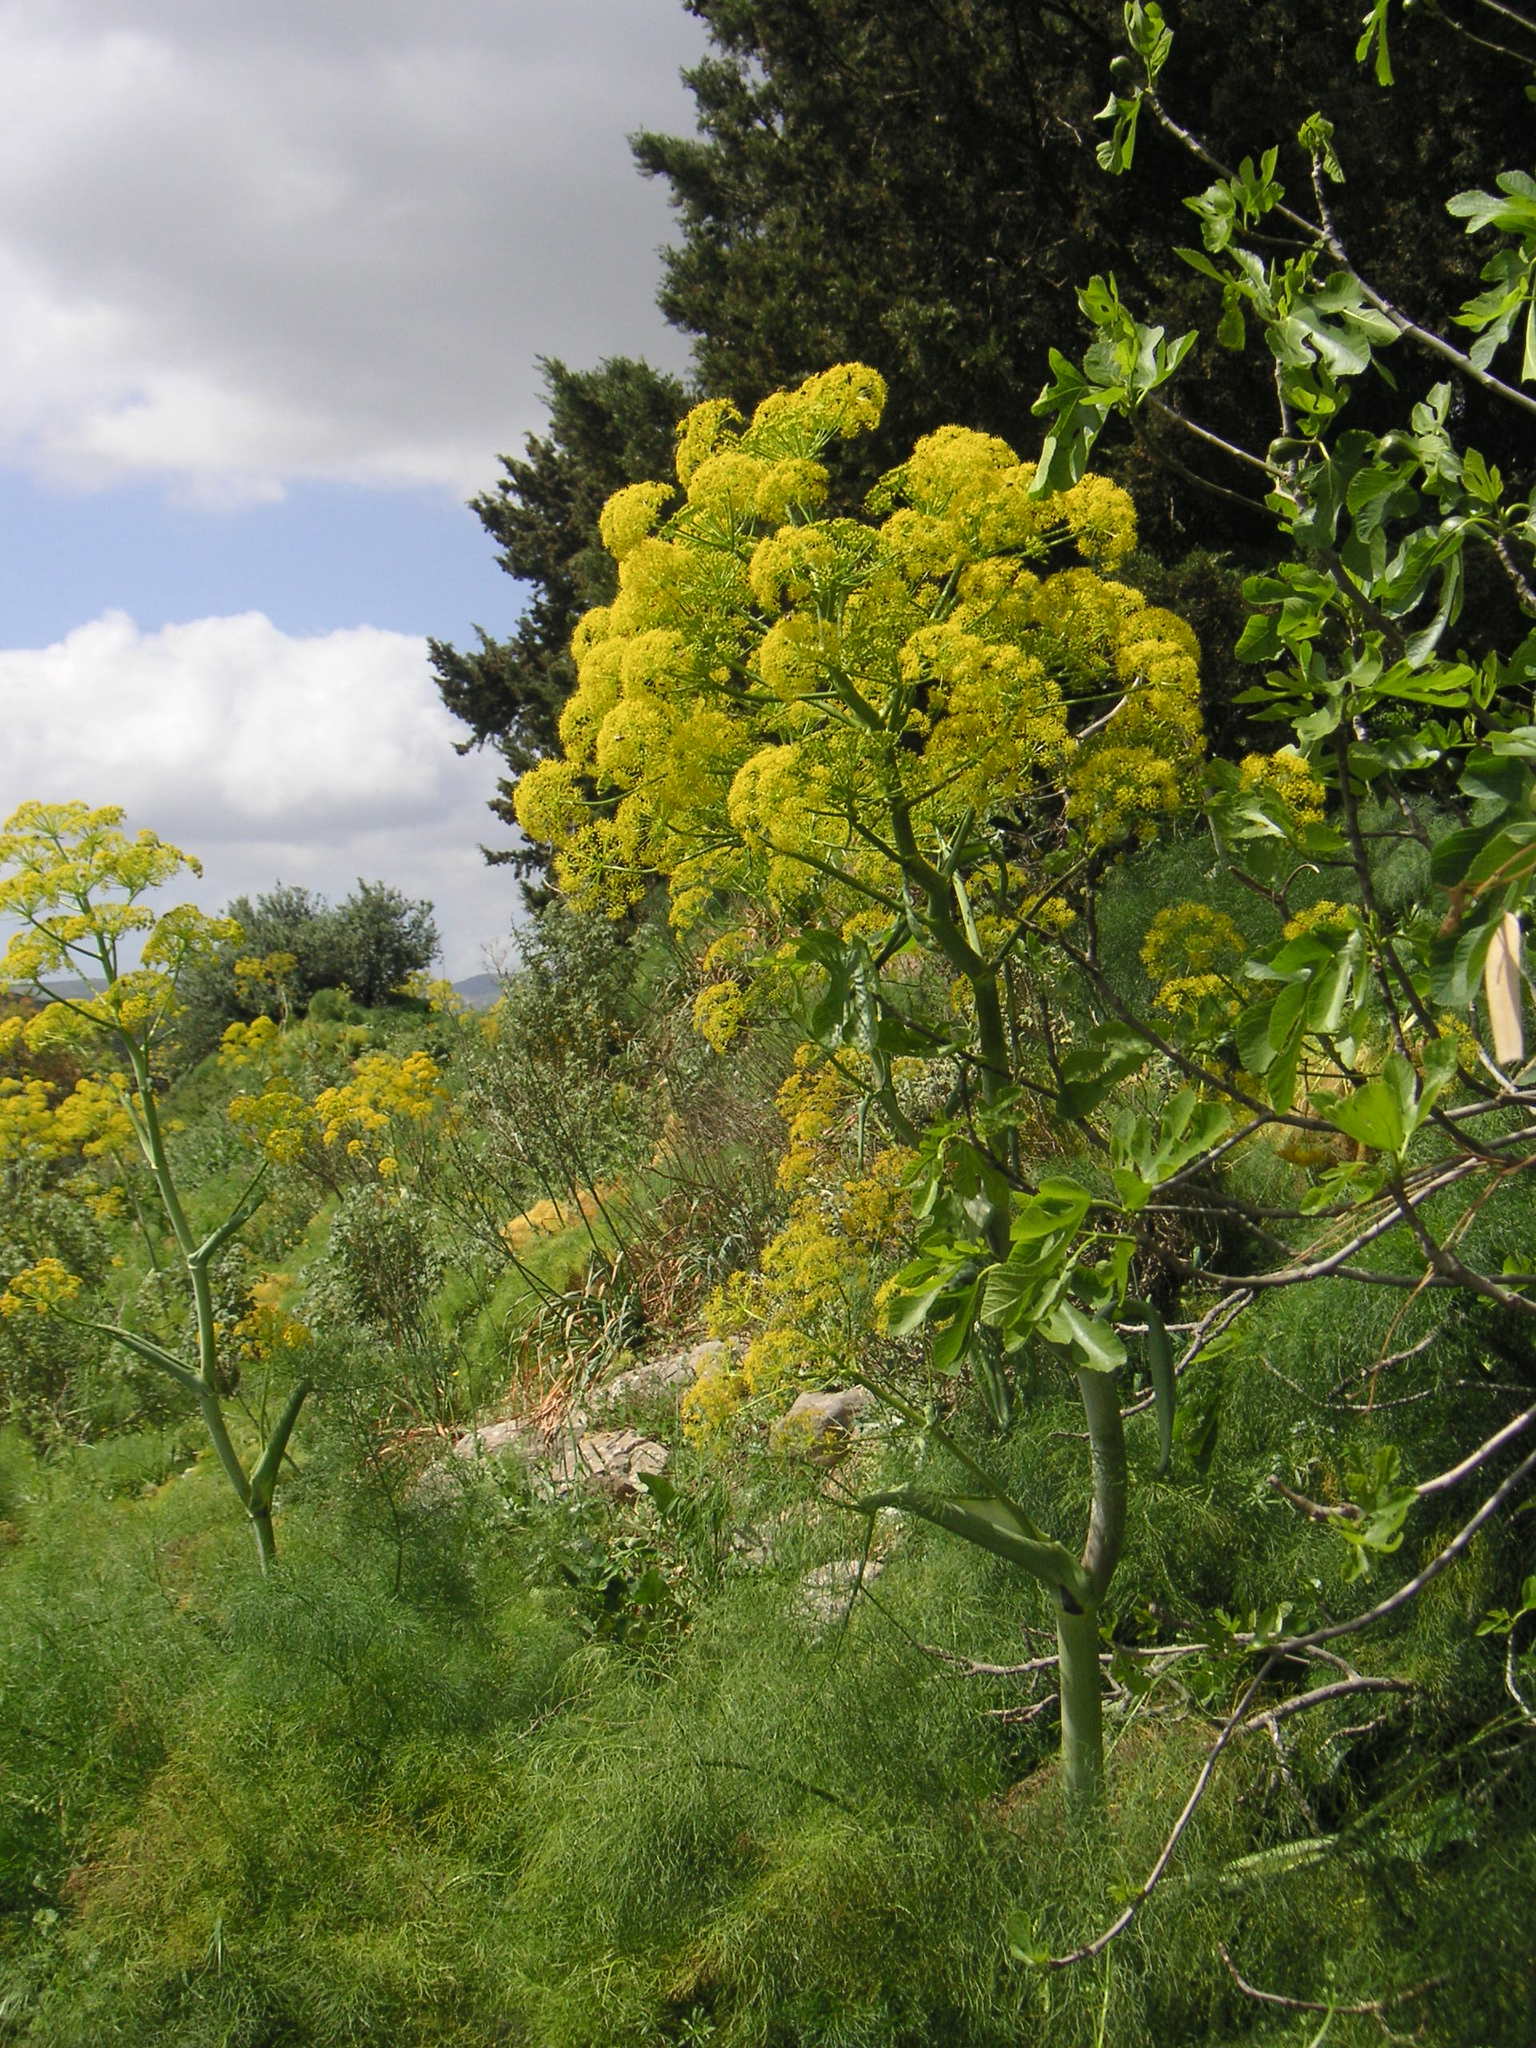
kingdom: Plantae
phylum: Tracheophyta
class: Magnoliopsida
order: Apiales
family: Apiaceae
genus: Ferula
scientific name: Ferula communis
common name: Giant fennel
